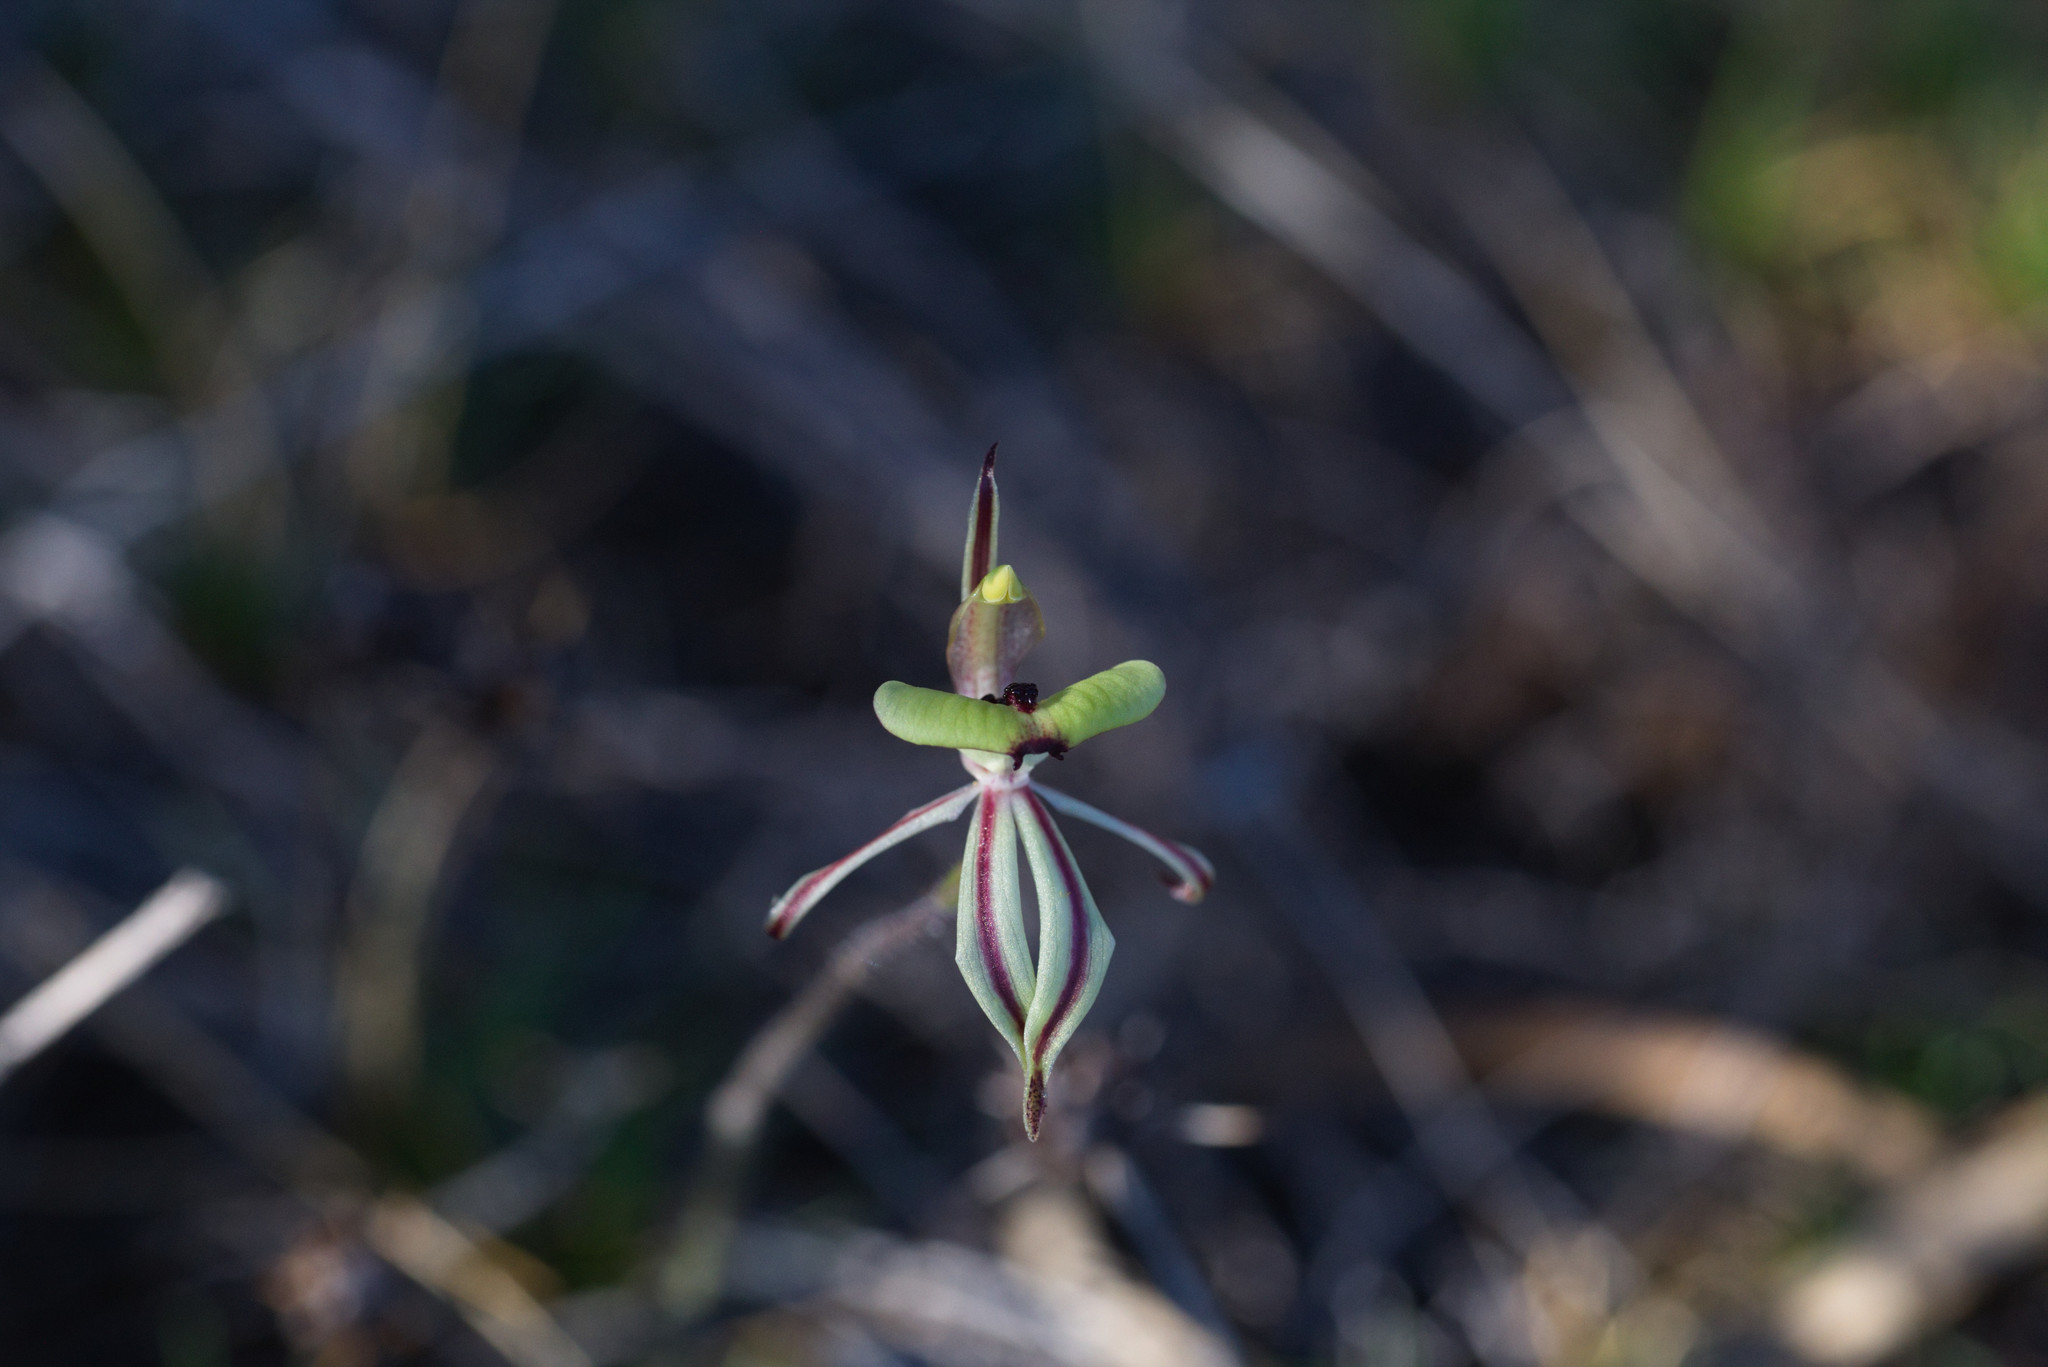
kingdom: Plantae
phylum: Tracheophyta
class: Liliopsida
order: Asparagales
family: Orchidaceae
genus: Caladenia
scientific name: Caladenia roei
